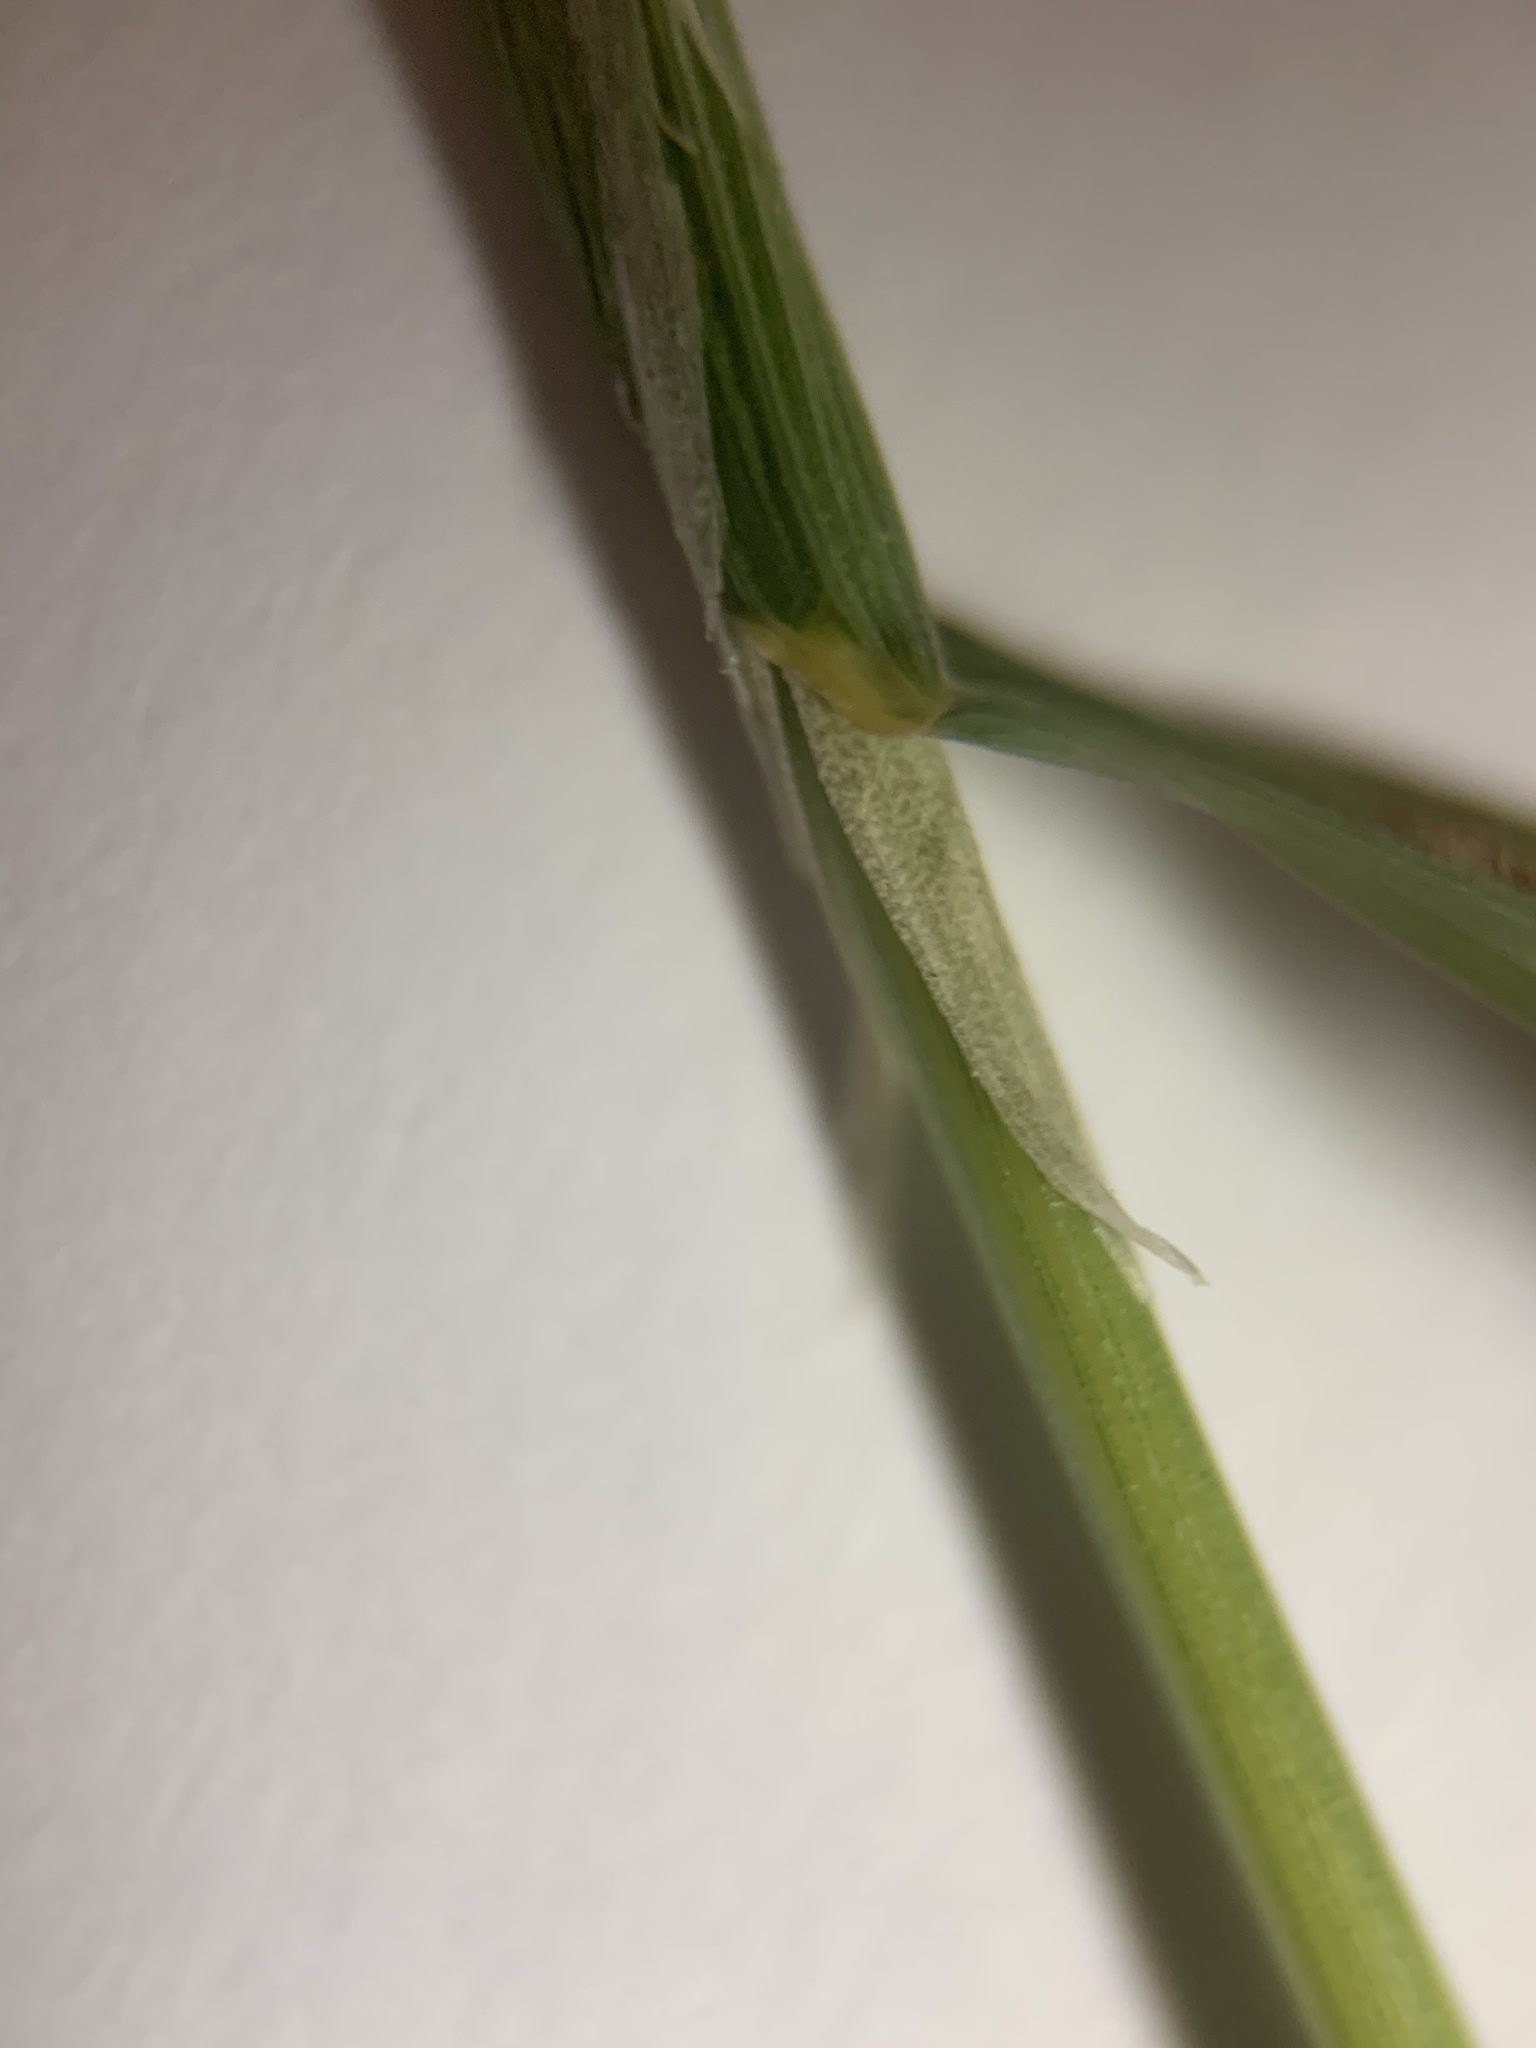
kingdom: Plantae
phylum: Tracheophyta
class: Liliopsida
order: Poales
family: Poaceae
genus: Polypogon
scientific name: Polypogon monspeliensis
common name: Annual rabbitsfoot grass
